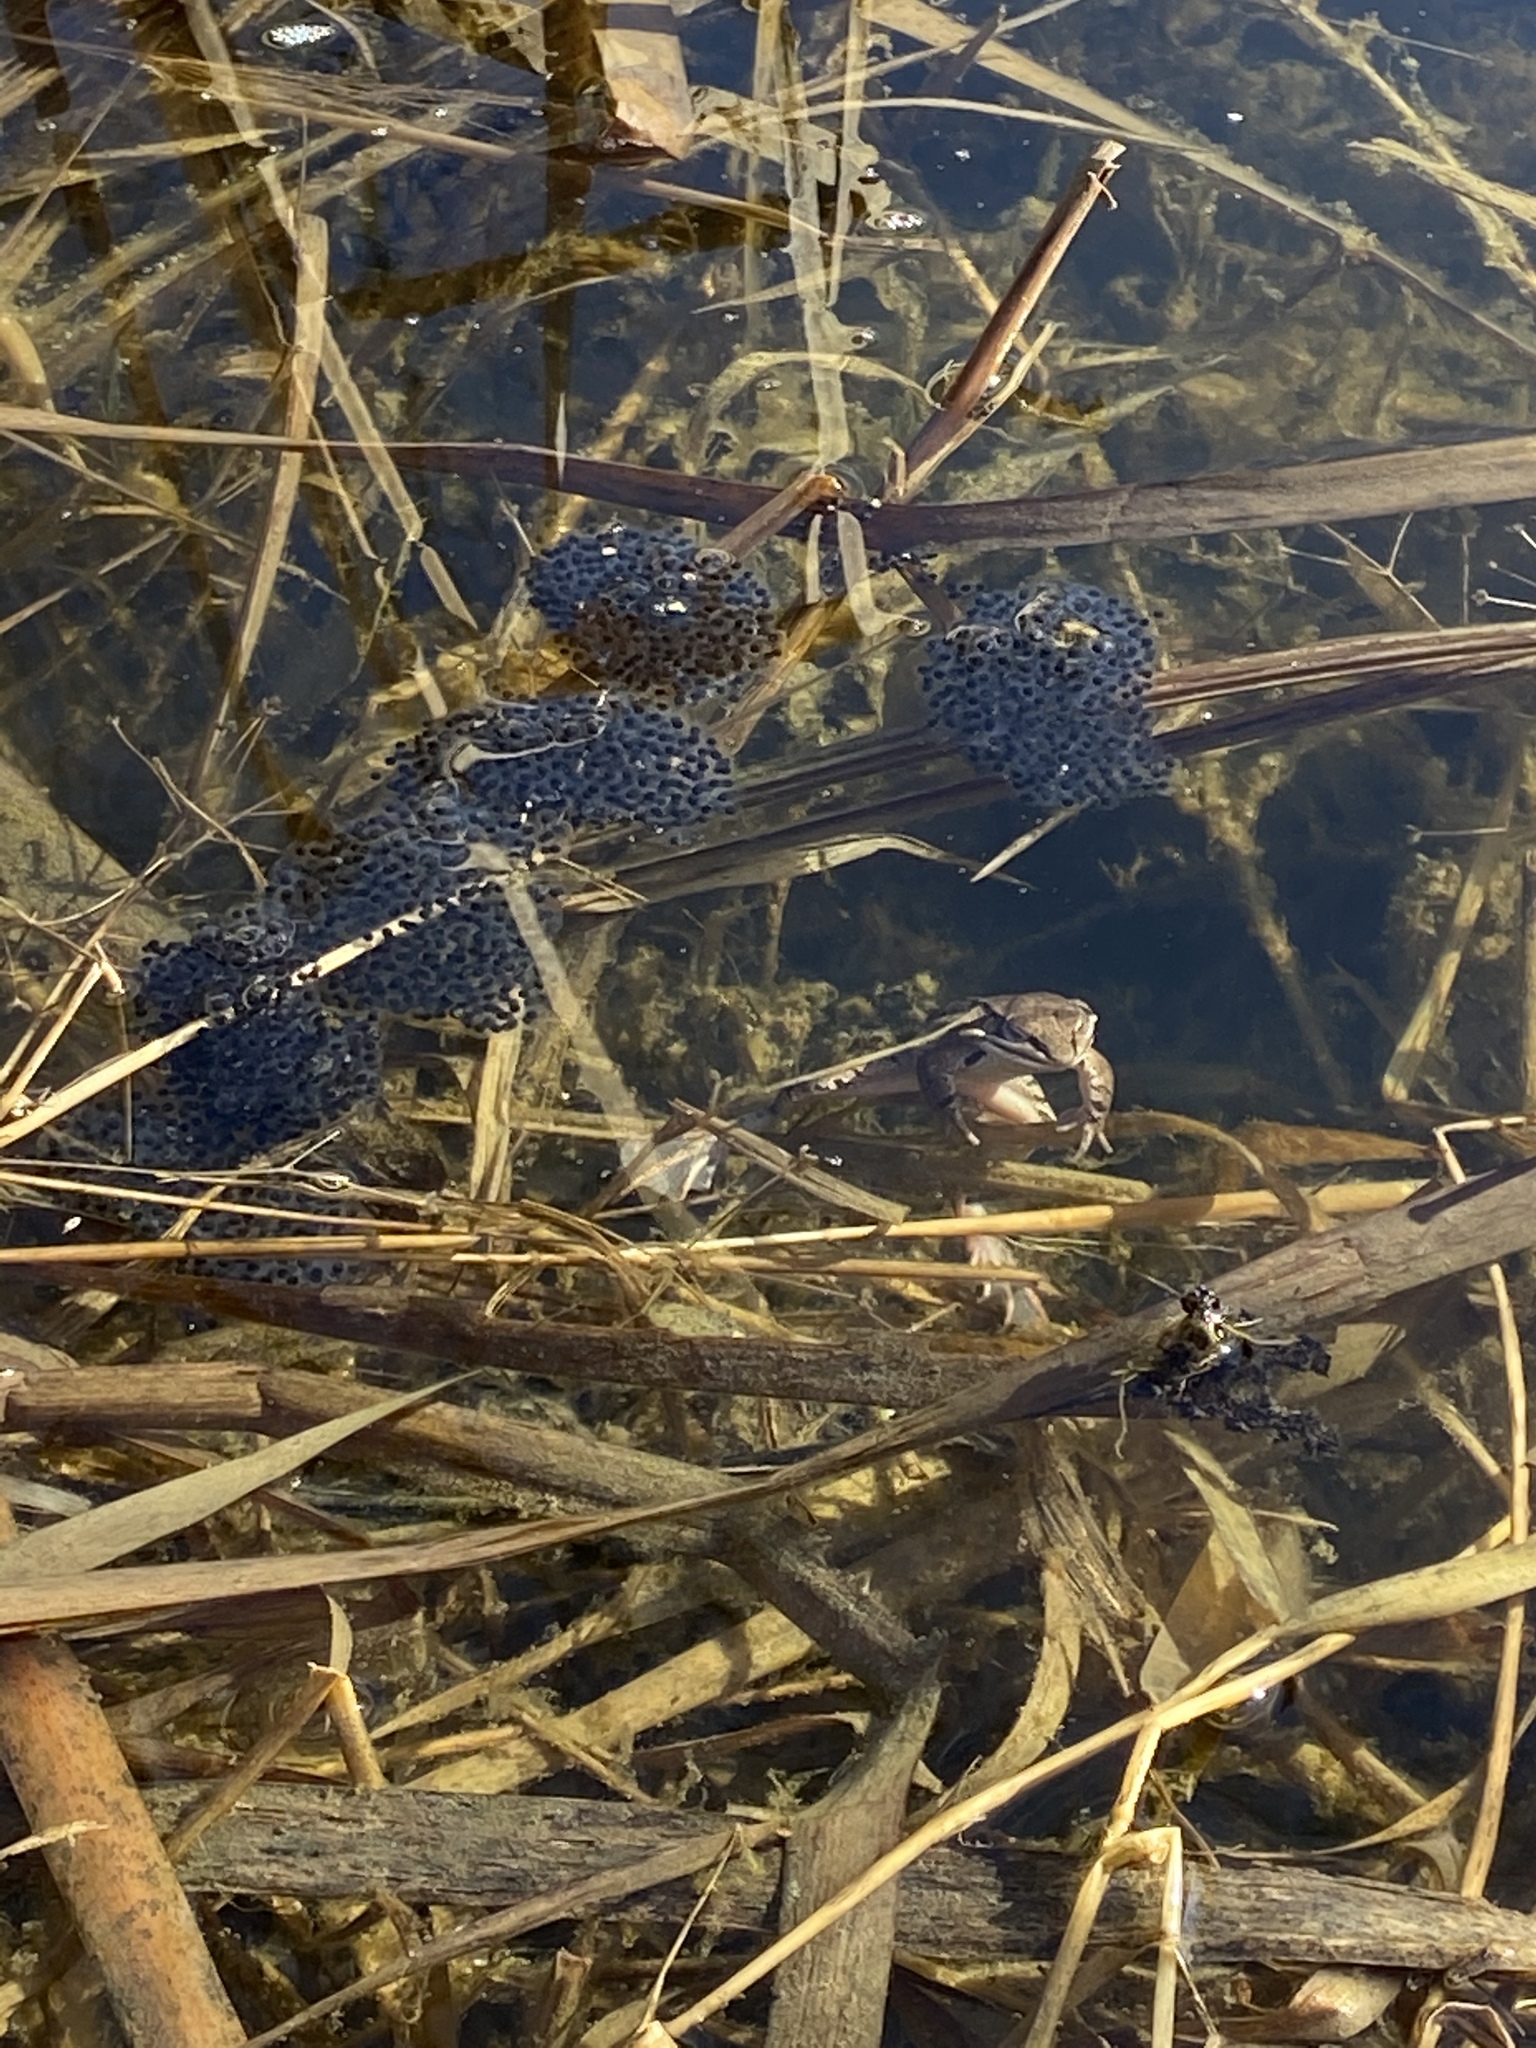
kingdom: Animalia
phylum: Chordata
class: Amphibia
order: Anura
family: Ranidae
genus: Lithobates
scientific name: Lithobates sylvaticus
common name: Wood frog
